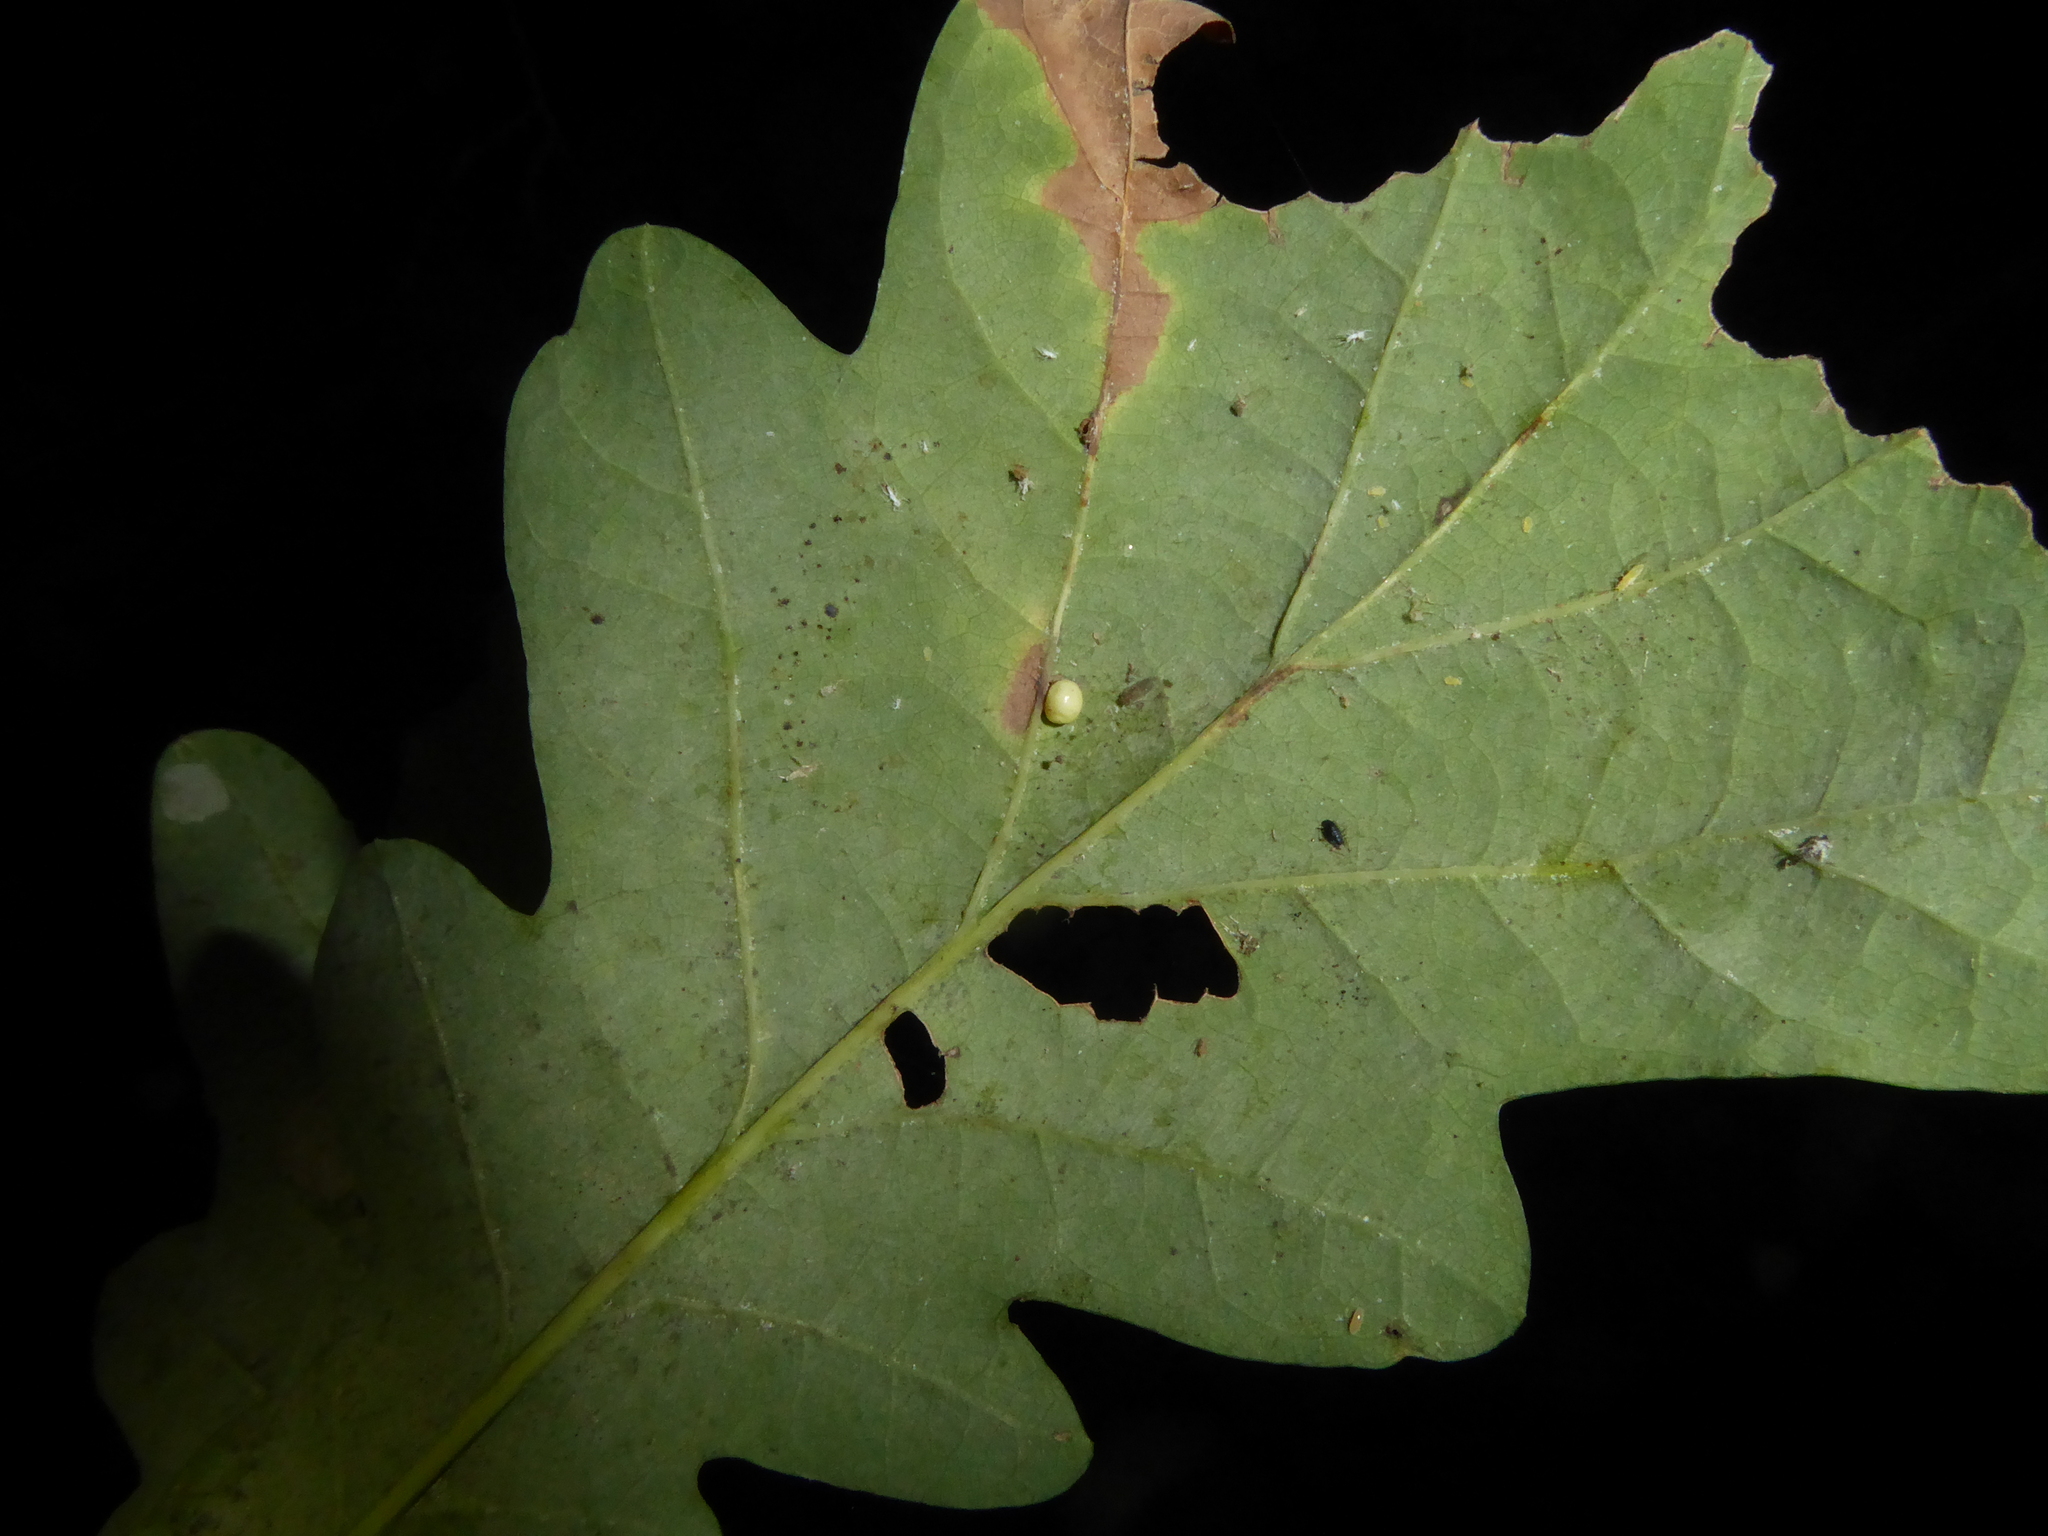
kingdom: Animalia
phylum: Arthropoda
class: Insecta
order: Hymenoptera
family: Cynipidae
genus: Neuroterus
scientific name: Neuroterus anthracinus
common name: Oyster gall
